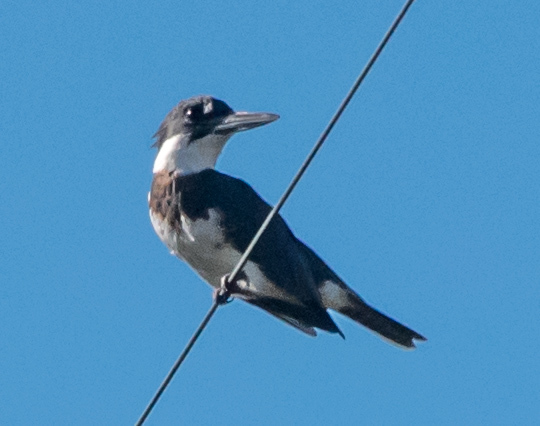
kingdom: Animalia
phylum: Chordata
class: Aves
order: Coraciiformes
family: Alcedinidae
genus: Megaceryle
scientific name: Megaceryle alcyon
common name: Belted kingfisher
